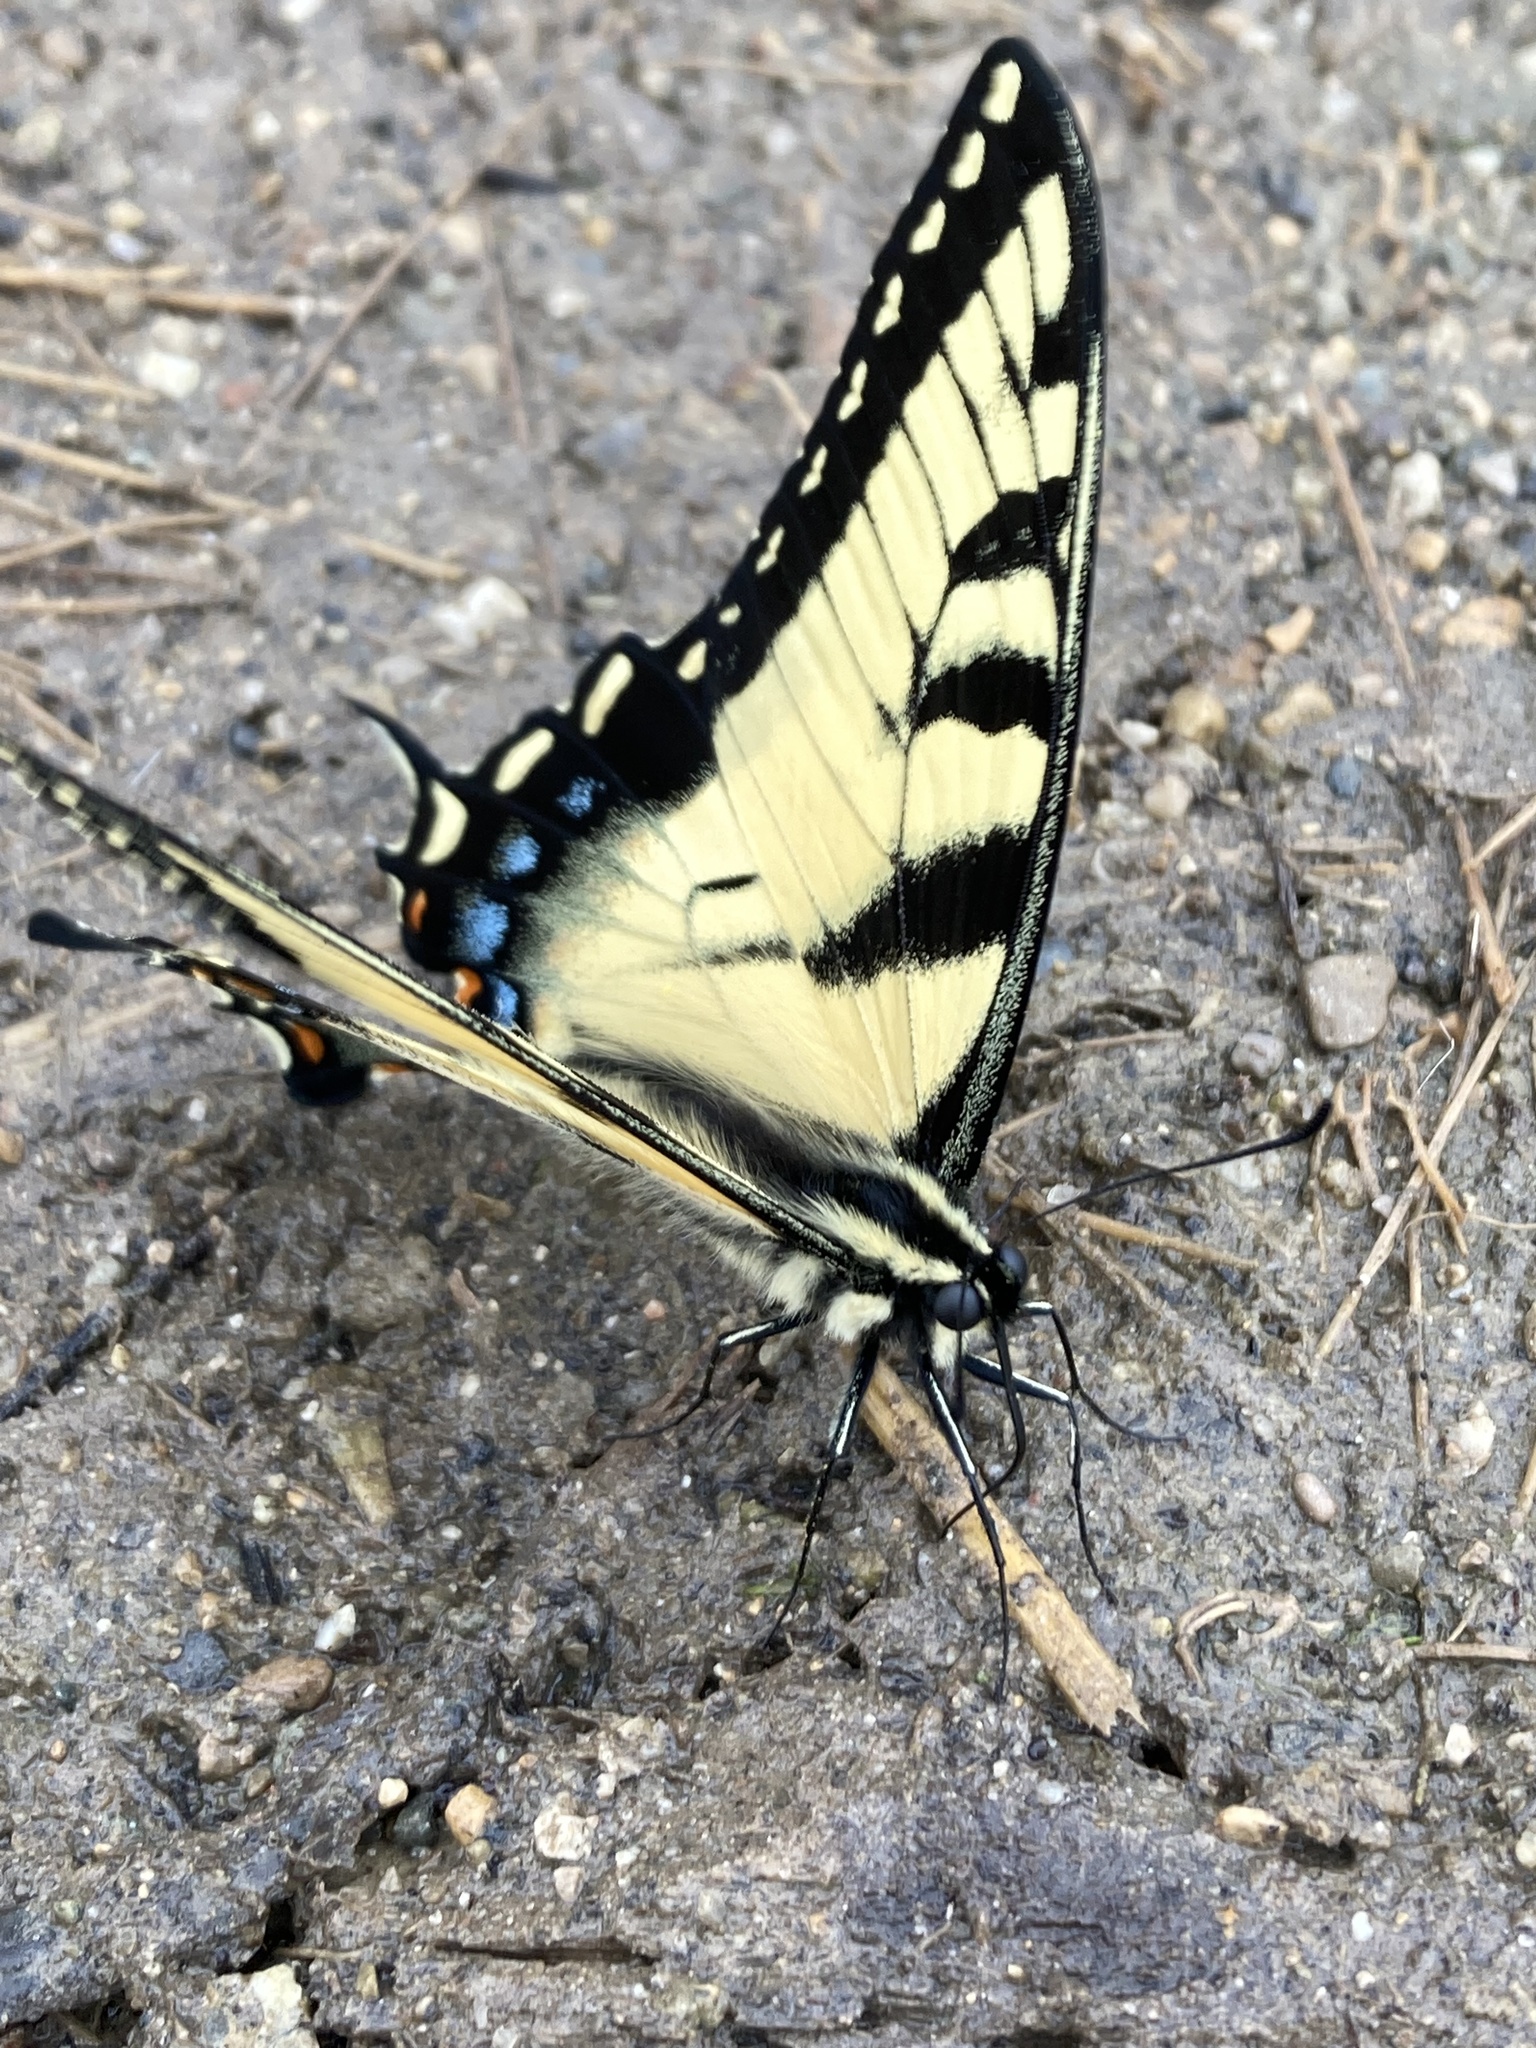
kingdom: Animalia
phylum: Arthropoda
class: Insecta
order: Lepidoptera
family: Papilionidae
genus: Papilio
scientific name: Papilio glaucus
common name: Tiger swallowtail
